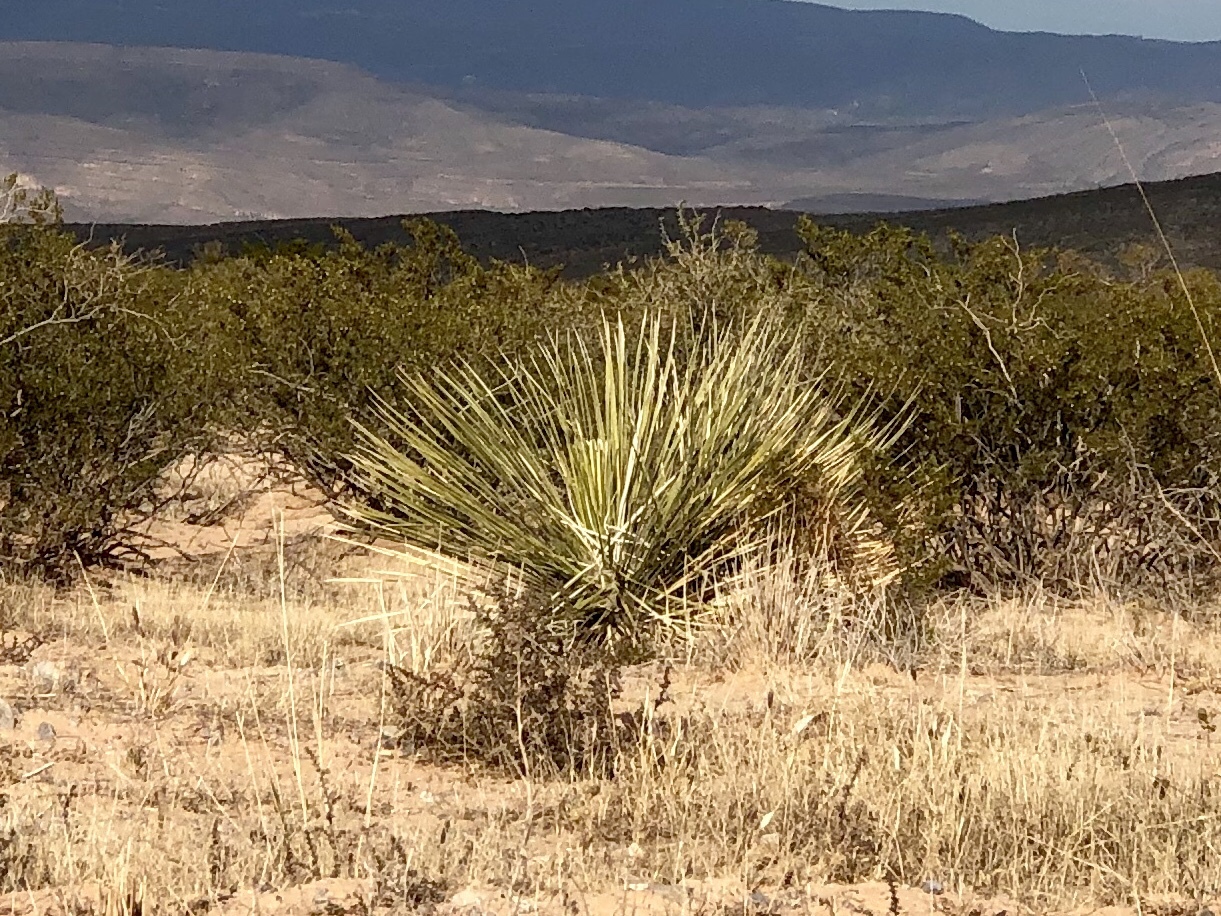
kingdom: Plantae
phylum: Tracheophyta
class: Liliopsida
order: Asparagales
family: Asparagaceae
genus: Yucca
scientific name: Yucca elata
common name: Palmella
